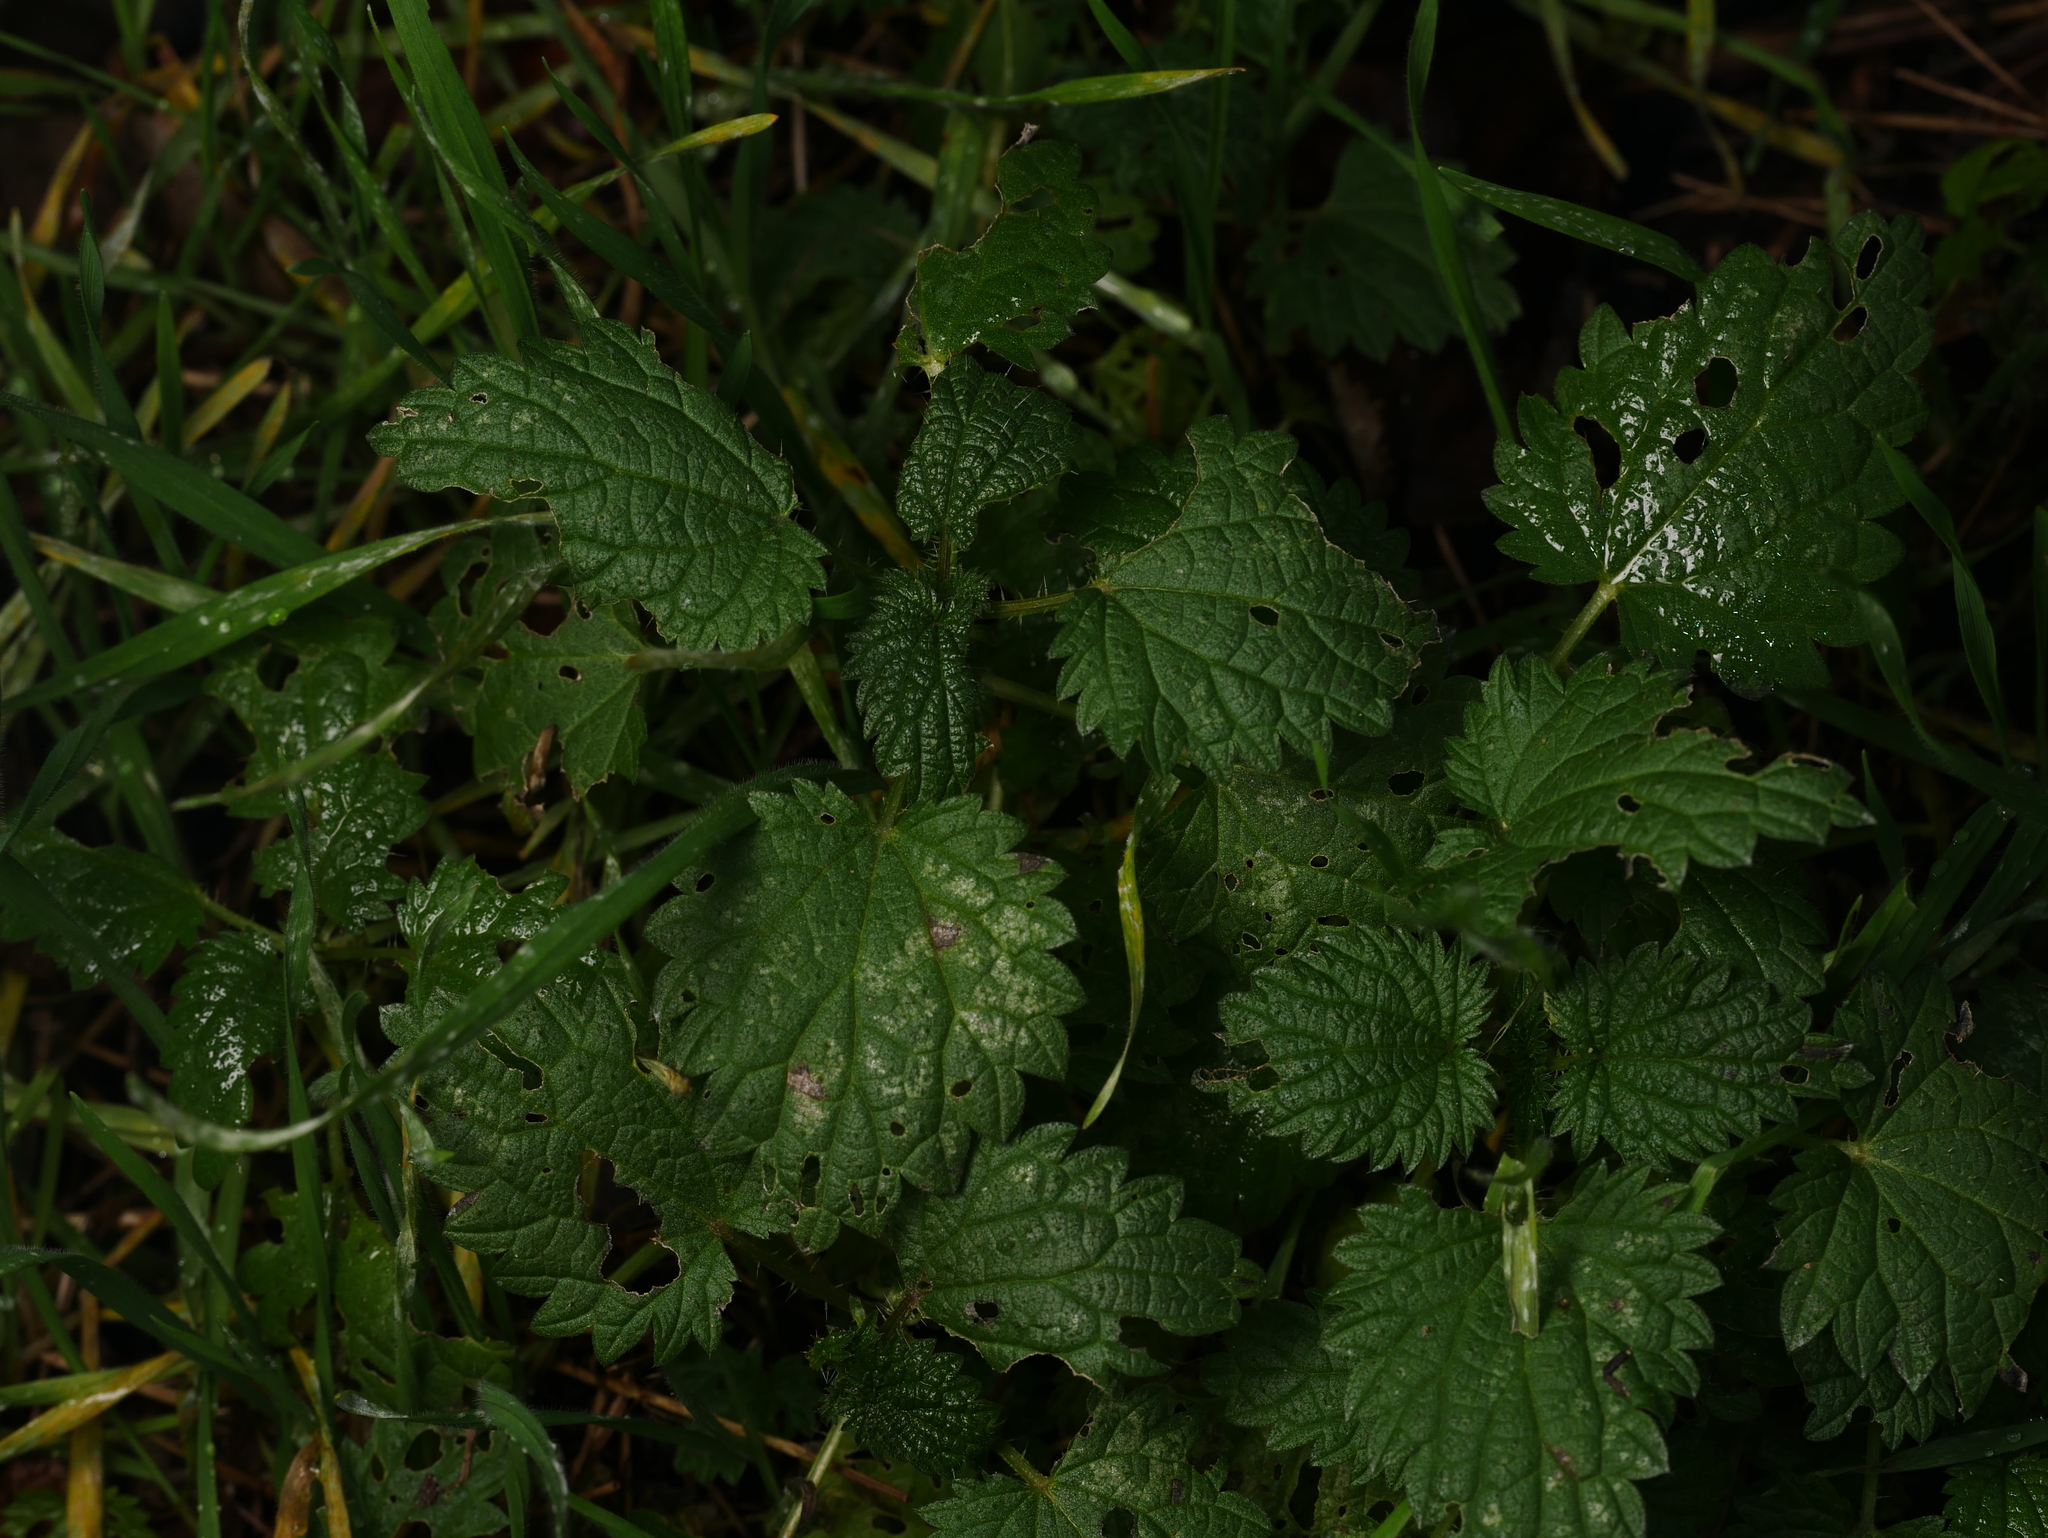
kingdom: Plantae
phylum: Tracheophyta
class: Magnoliopsida
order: Rosales
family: Urticaceae
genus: Urtica
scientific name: Urtica dioica
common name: Common nettle
